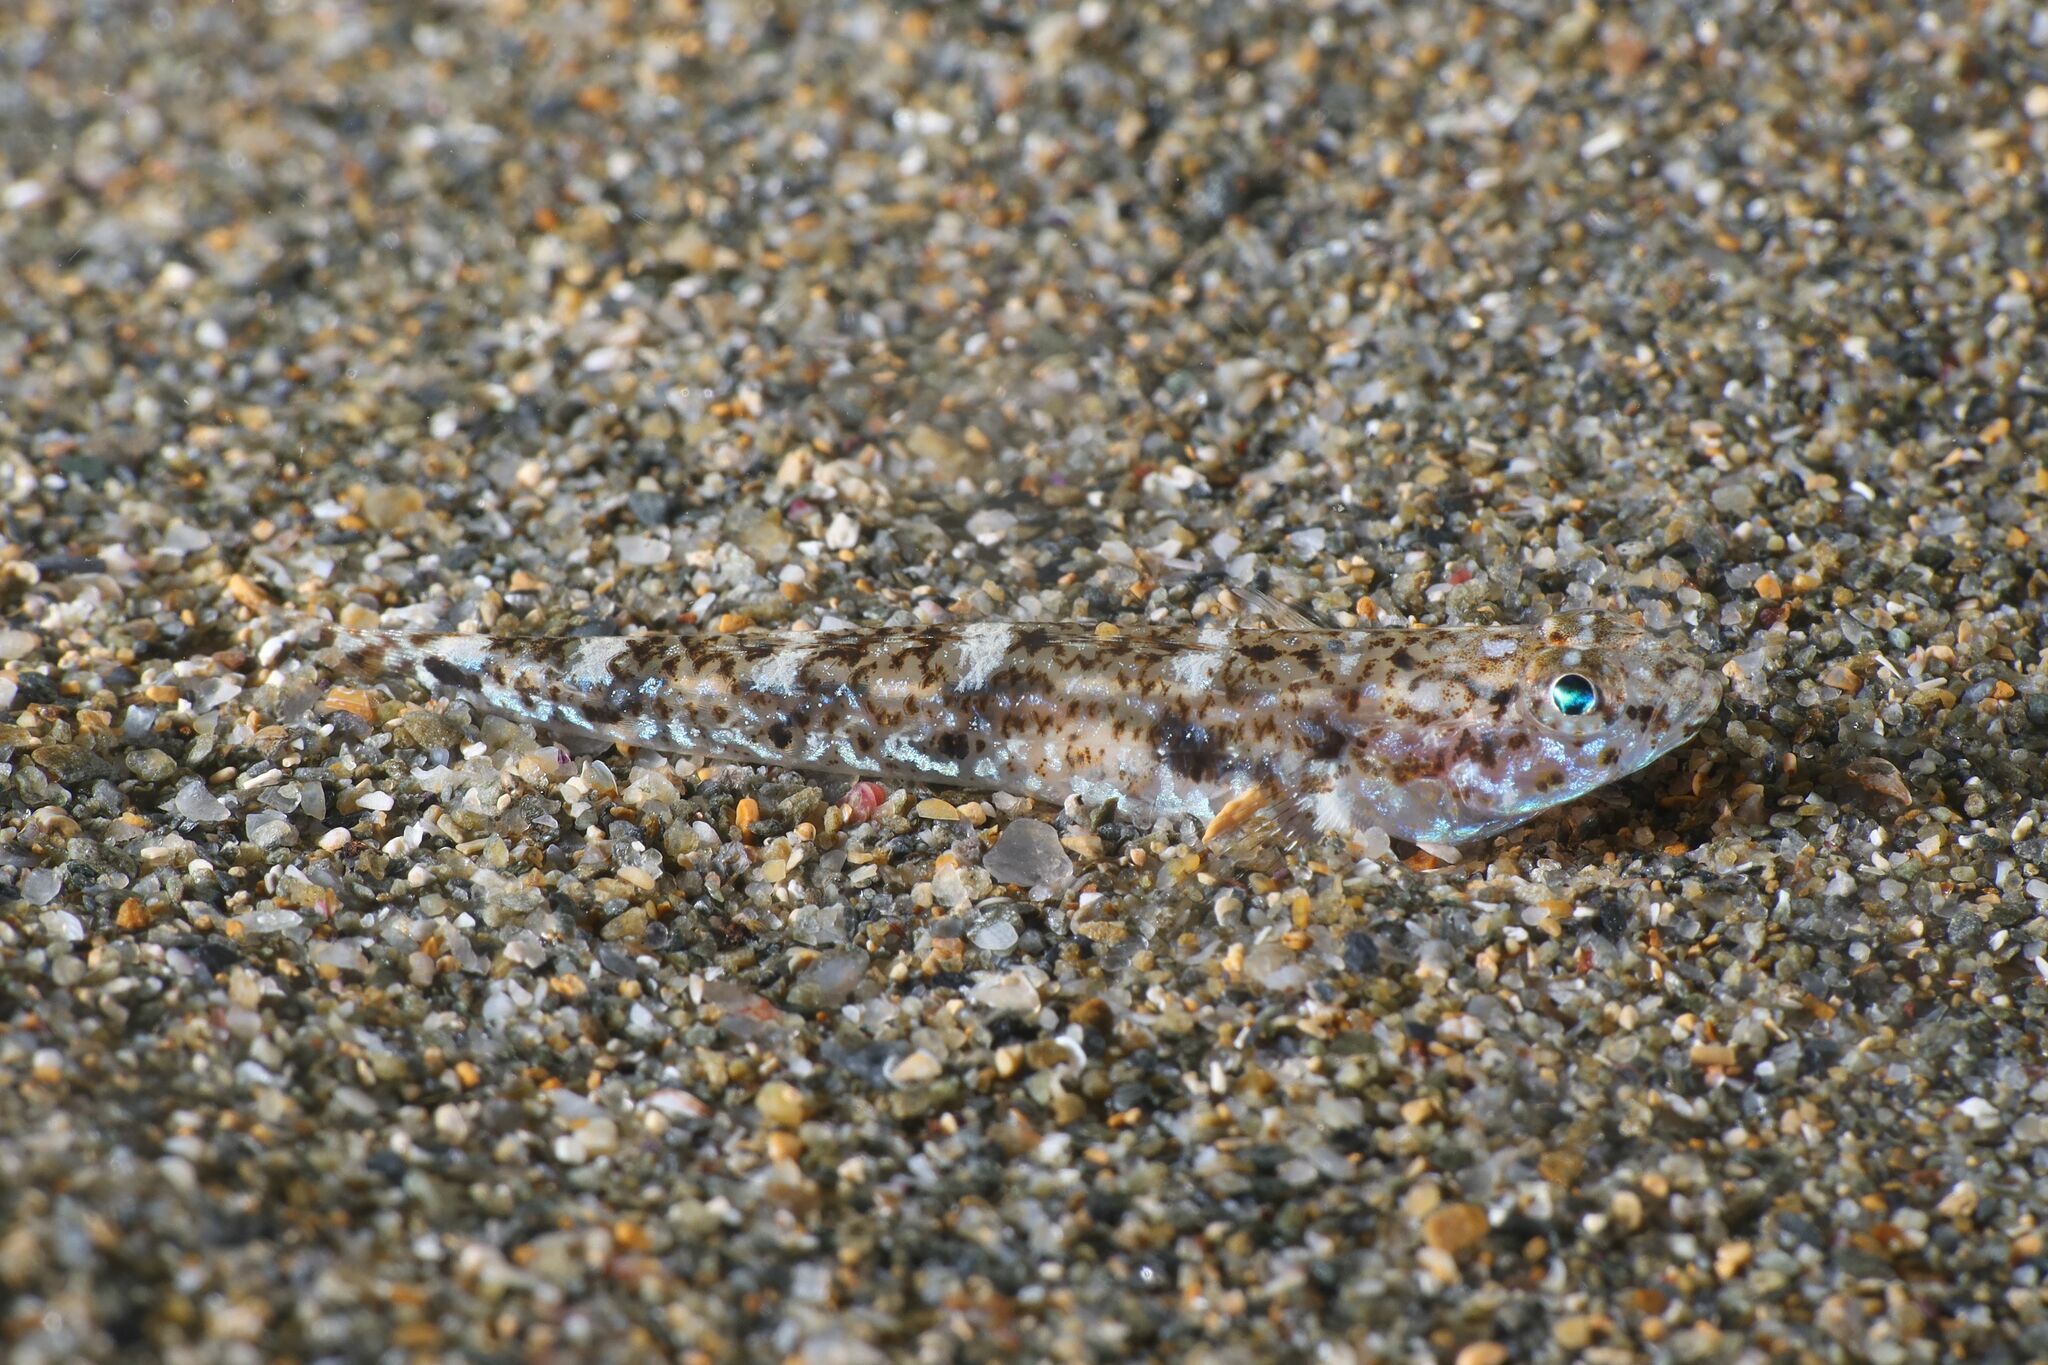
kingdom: Animalia
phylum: Chordata
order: Perciformes
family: Gobiidae
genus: Pomatoschistus
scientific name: Pomatoschistus marmoratus
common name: Marbled goby
